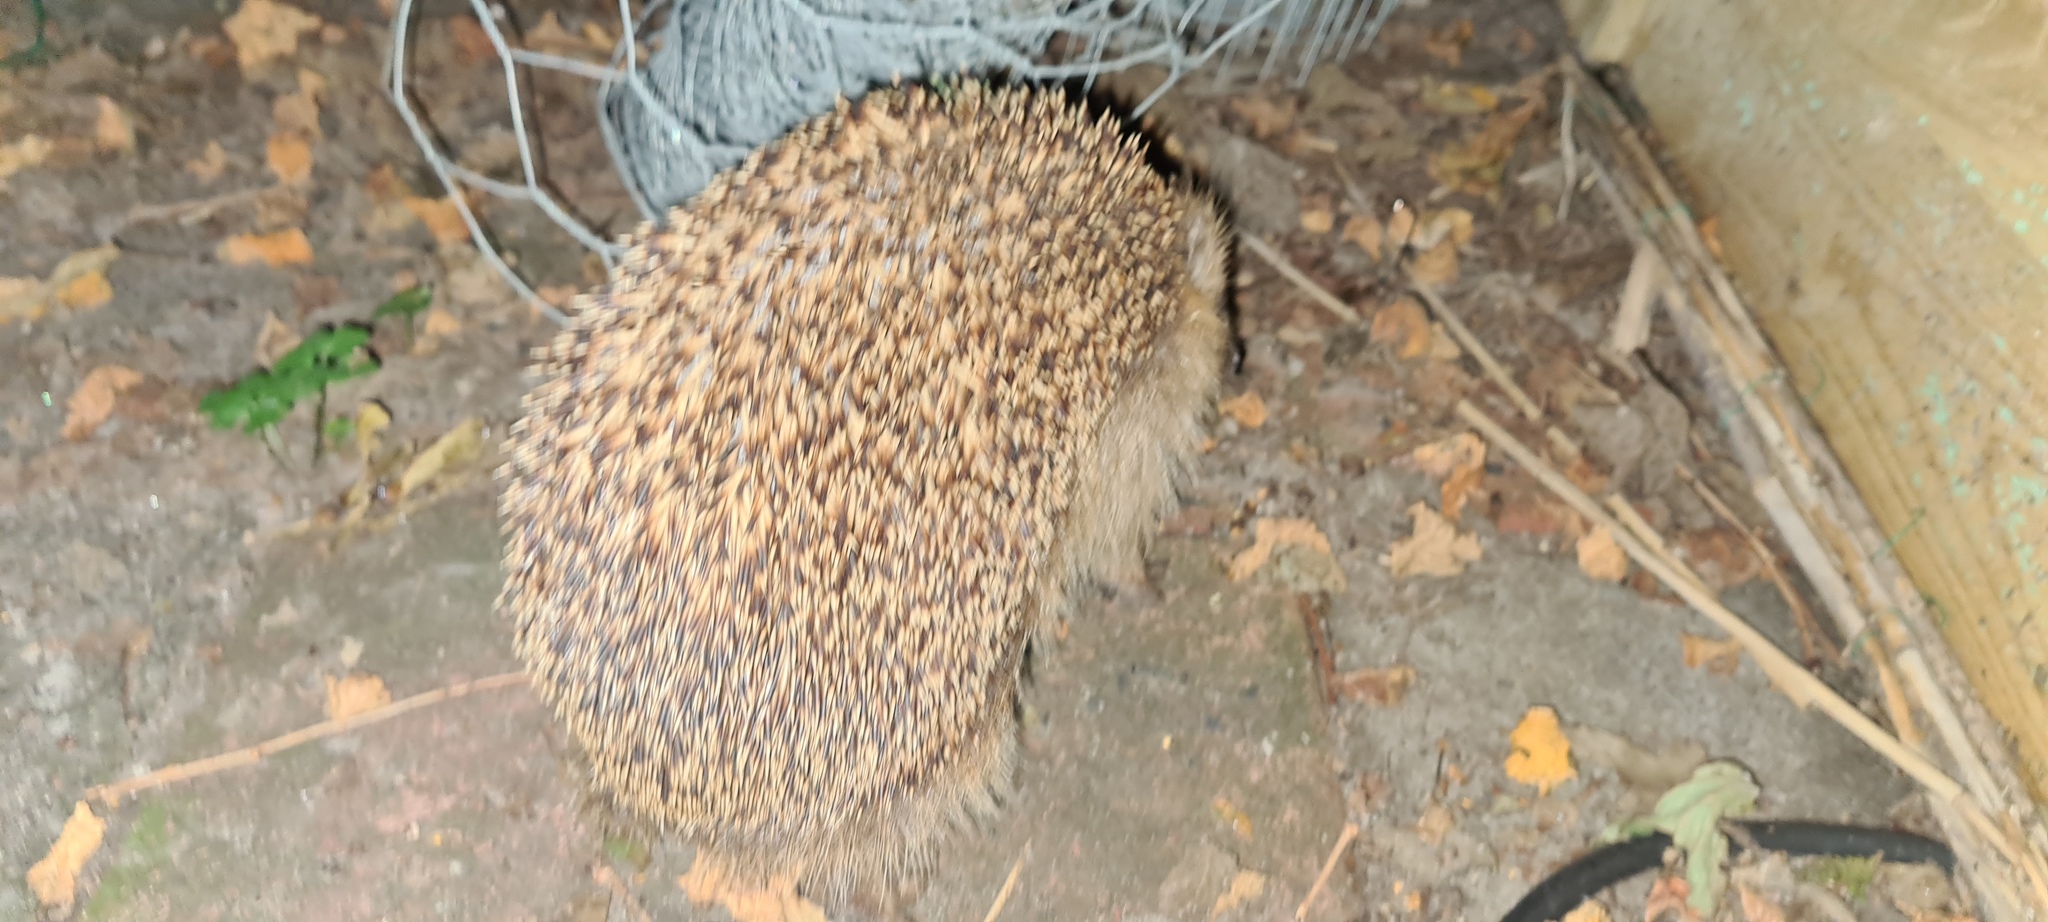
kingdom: Animalia
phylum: Chordata
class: Mammalia
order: Erinaceomorpha
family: Erinaceidae
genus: Erinaceus
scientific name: Erinaceus europaeus
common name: West european hedgehog
